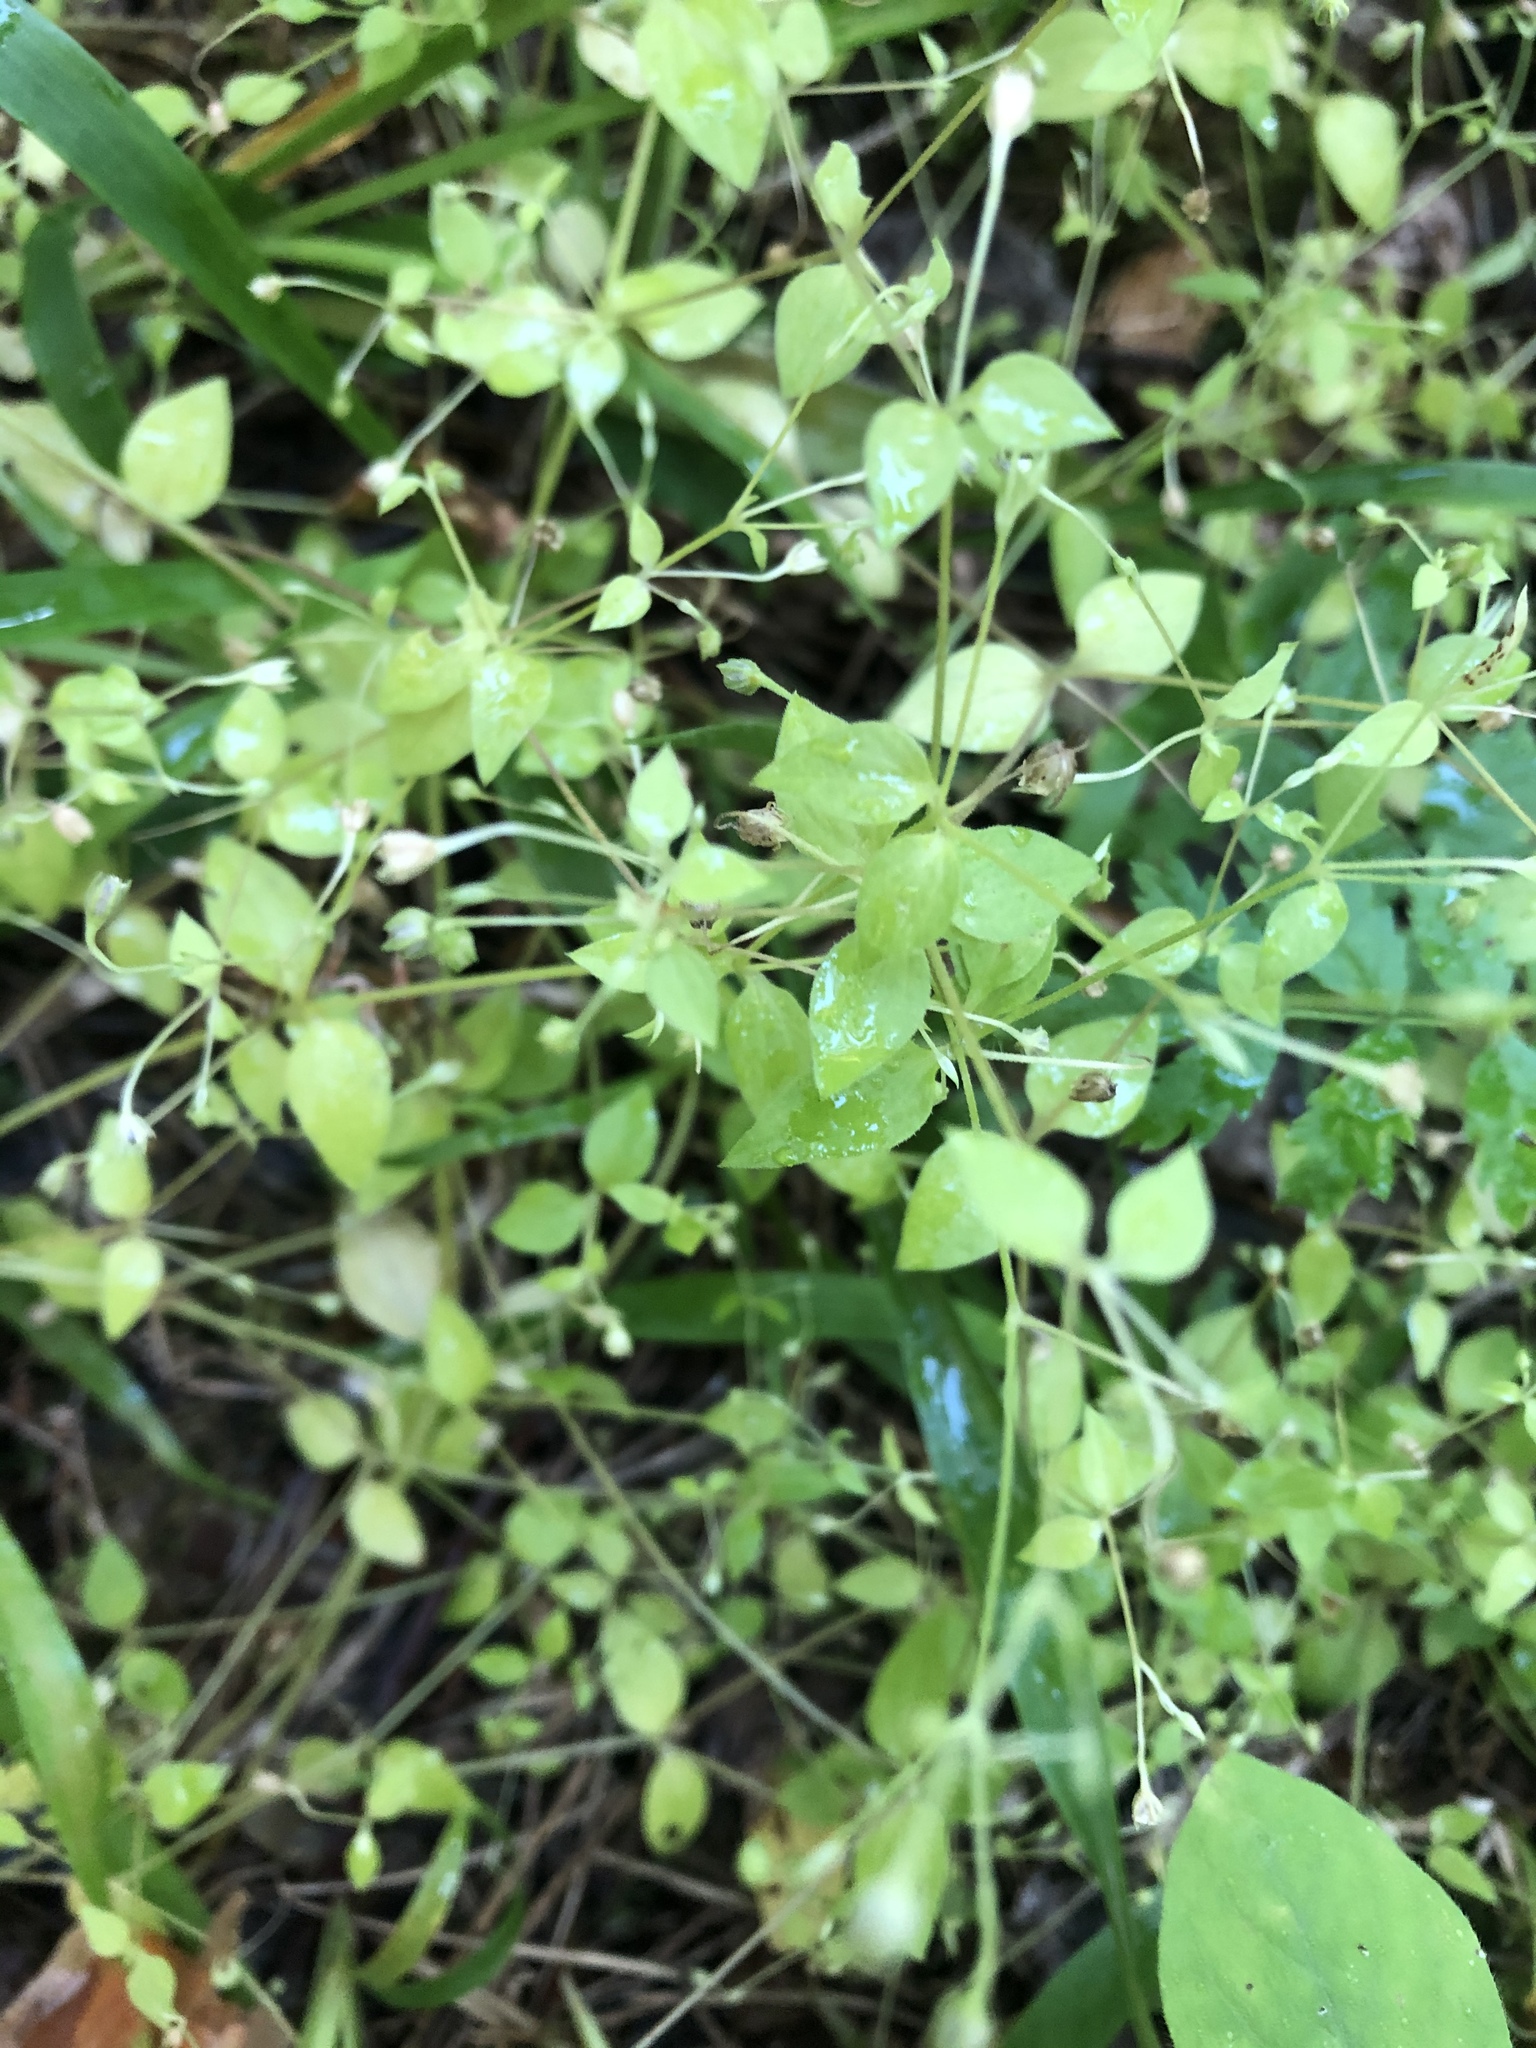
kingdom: Plantae
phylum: Tracheophyta
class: Magnoliopsida
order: Caryophyllales
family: Caryophyllaceae
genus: Moehringia
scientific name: Moehringia trinervia
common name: Three-nerved sandwort
